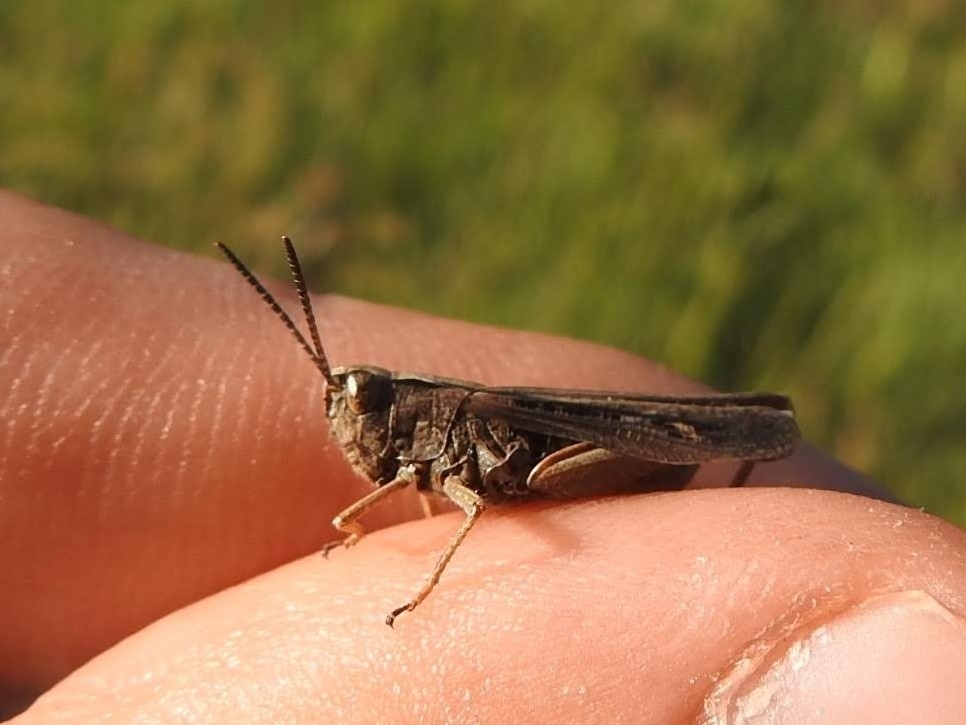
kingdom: Animalia
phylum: Arthropoda
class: Insecta
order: Orthoptera
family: Acrididae
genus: Omocestus
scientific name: Omocestus rufipes
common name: Woodland grasshopper
